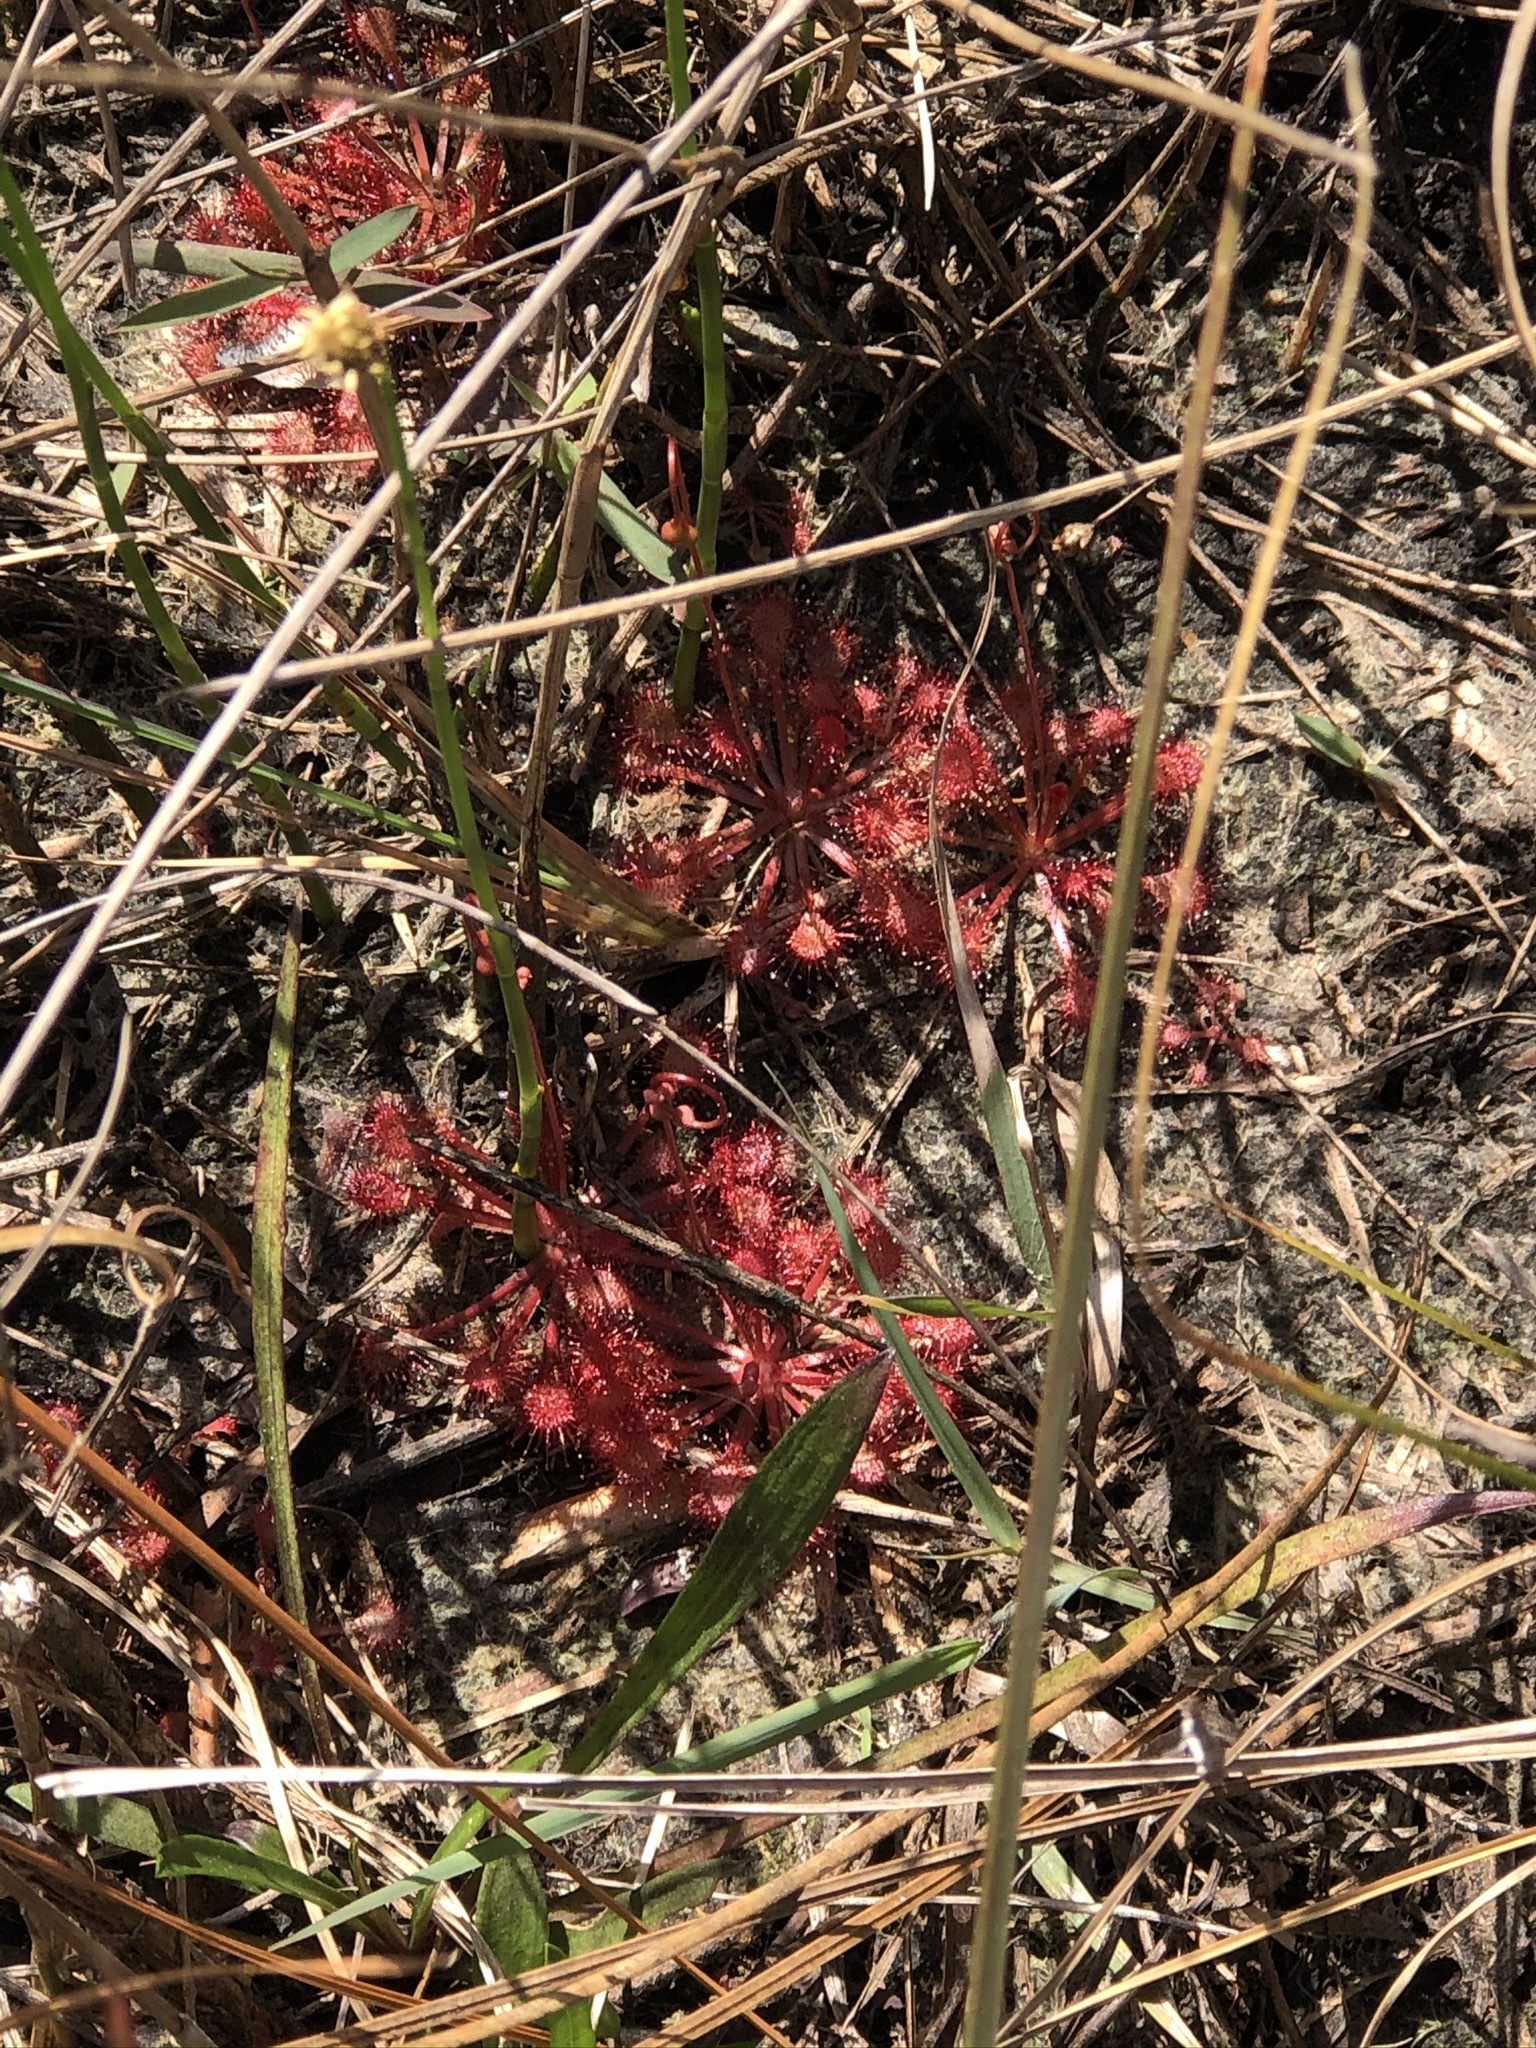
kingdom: Plantae
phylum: Tracheophyta
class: Magnoliopsida
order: Caryophyllales
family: Droseraceae
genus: Drosera
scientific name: Drosera capillaris
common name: Pink sundew
